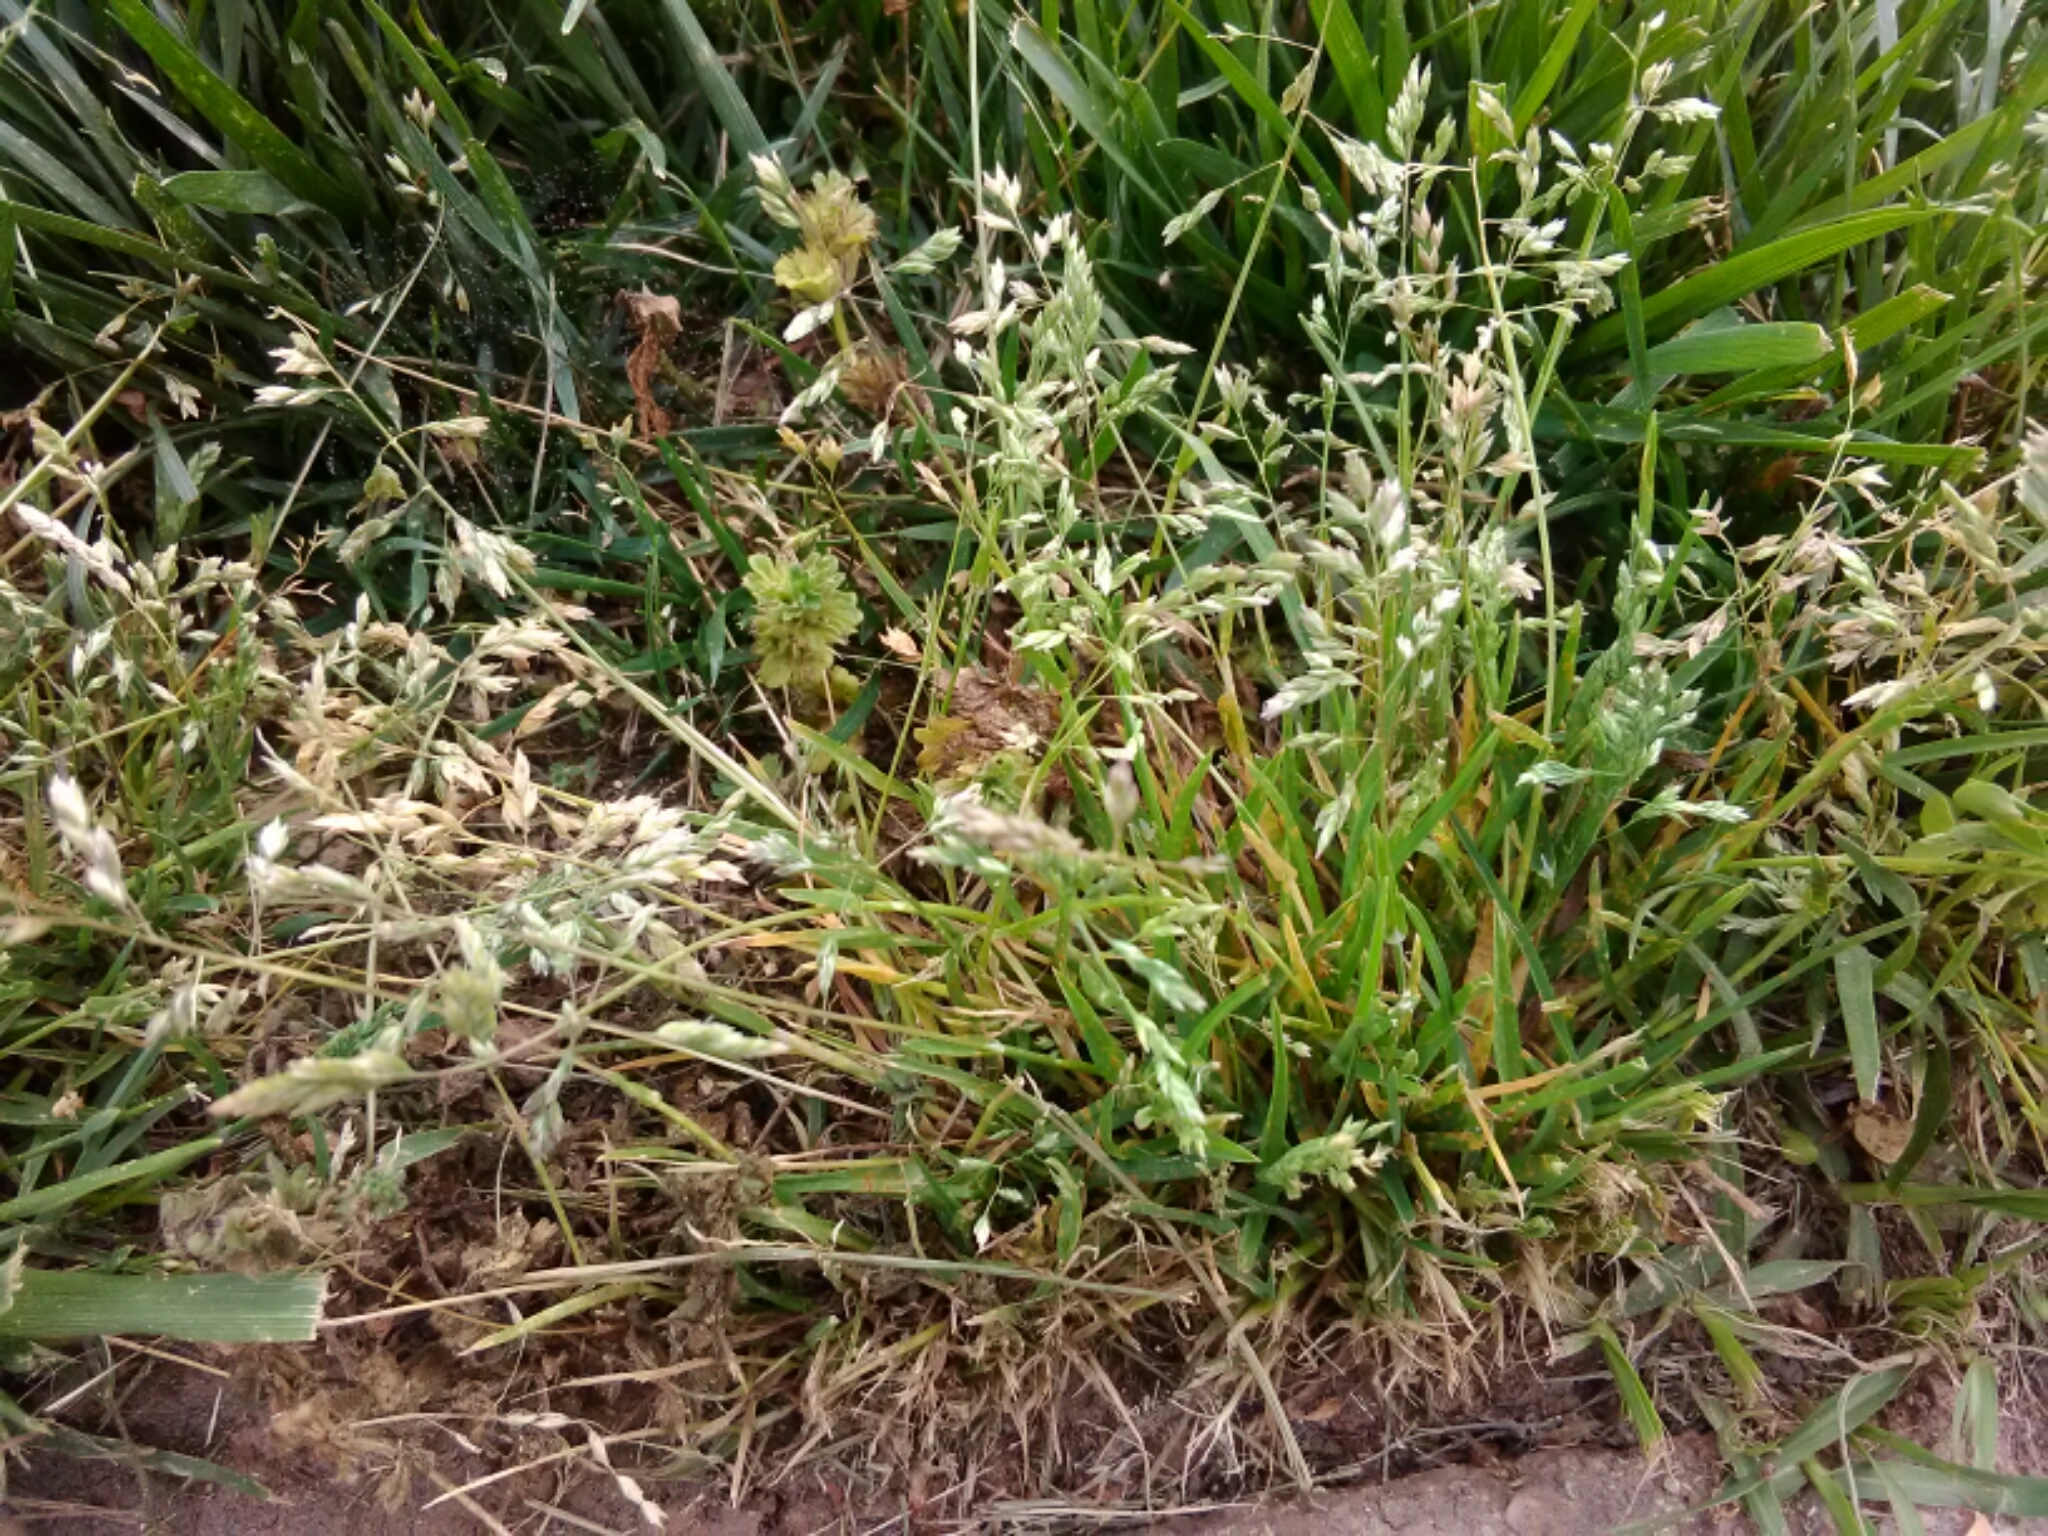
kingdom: Plantae
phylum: Tracheophyta
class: Liliopsida
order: Poales
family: Poaceae
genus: Poa
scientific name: Poa annua
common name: Annual bluegrass
